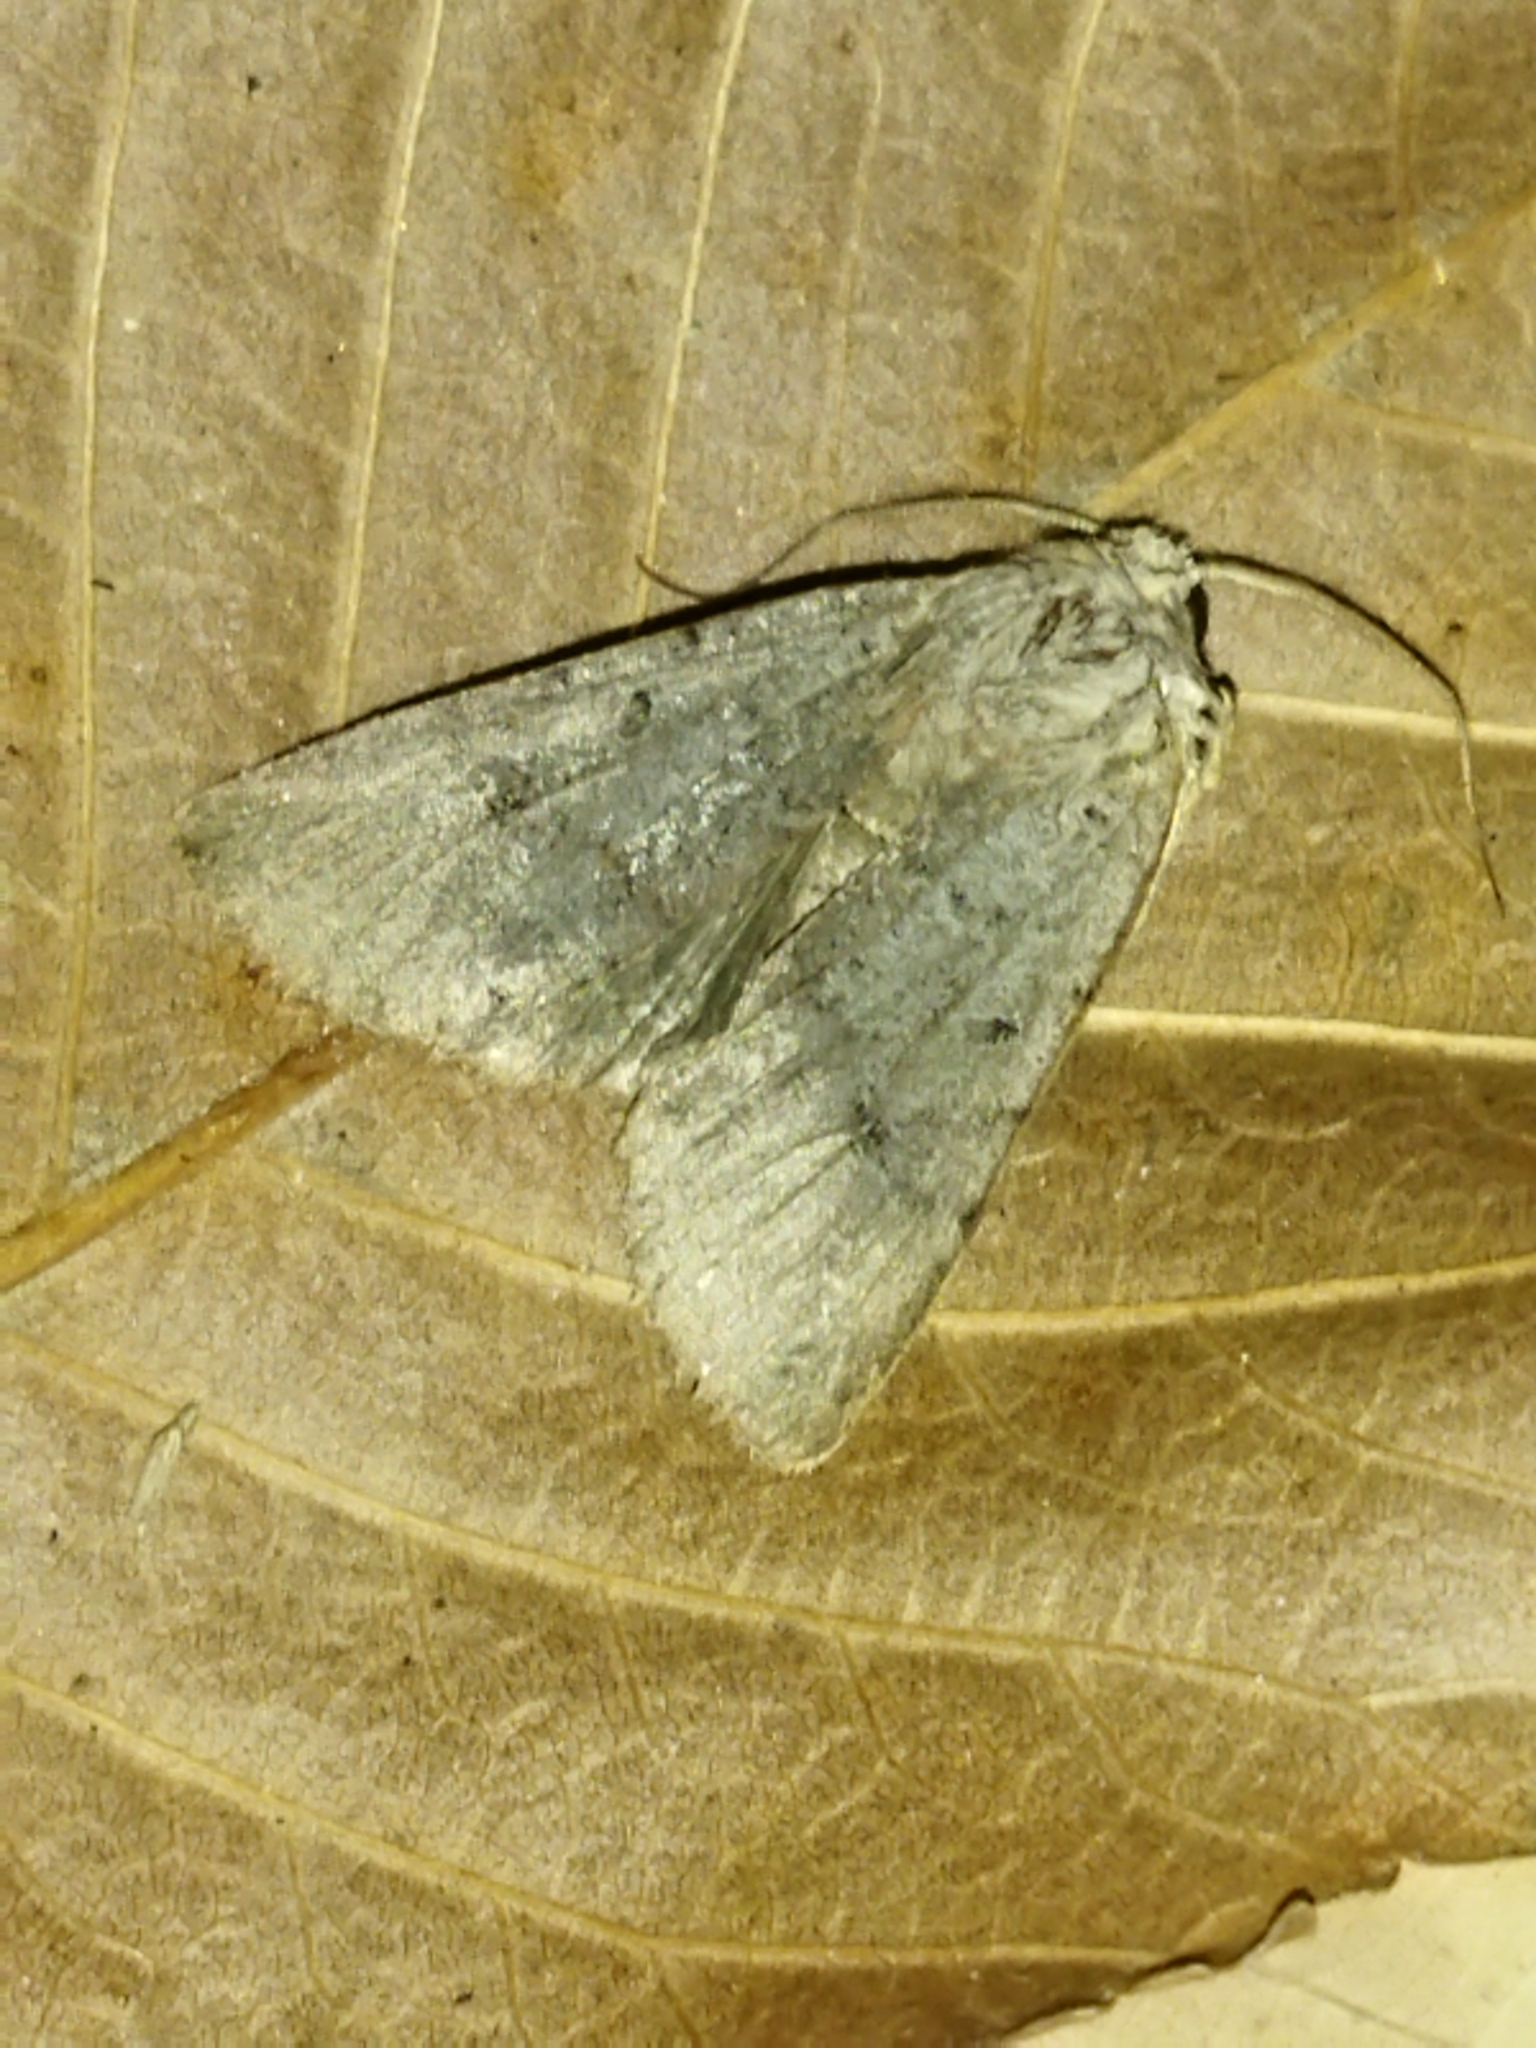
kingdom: Animalia
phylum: Arthropoda
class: Insecta
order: Lepidoptera
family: Noctuidae
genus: Agrochola
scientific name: Agrochola lychnidis
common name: Beaded chestnut
